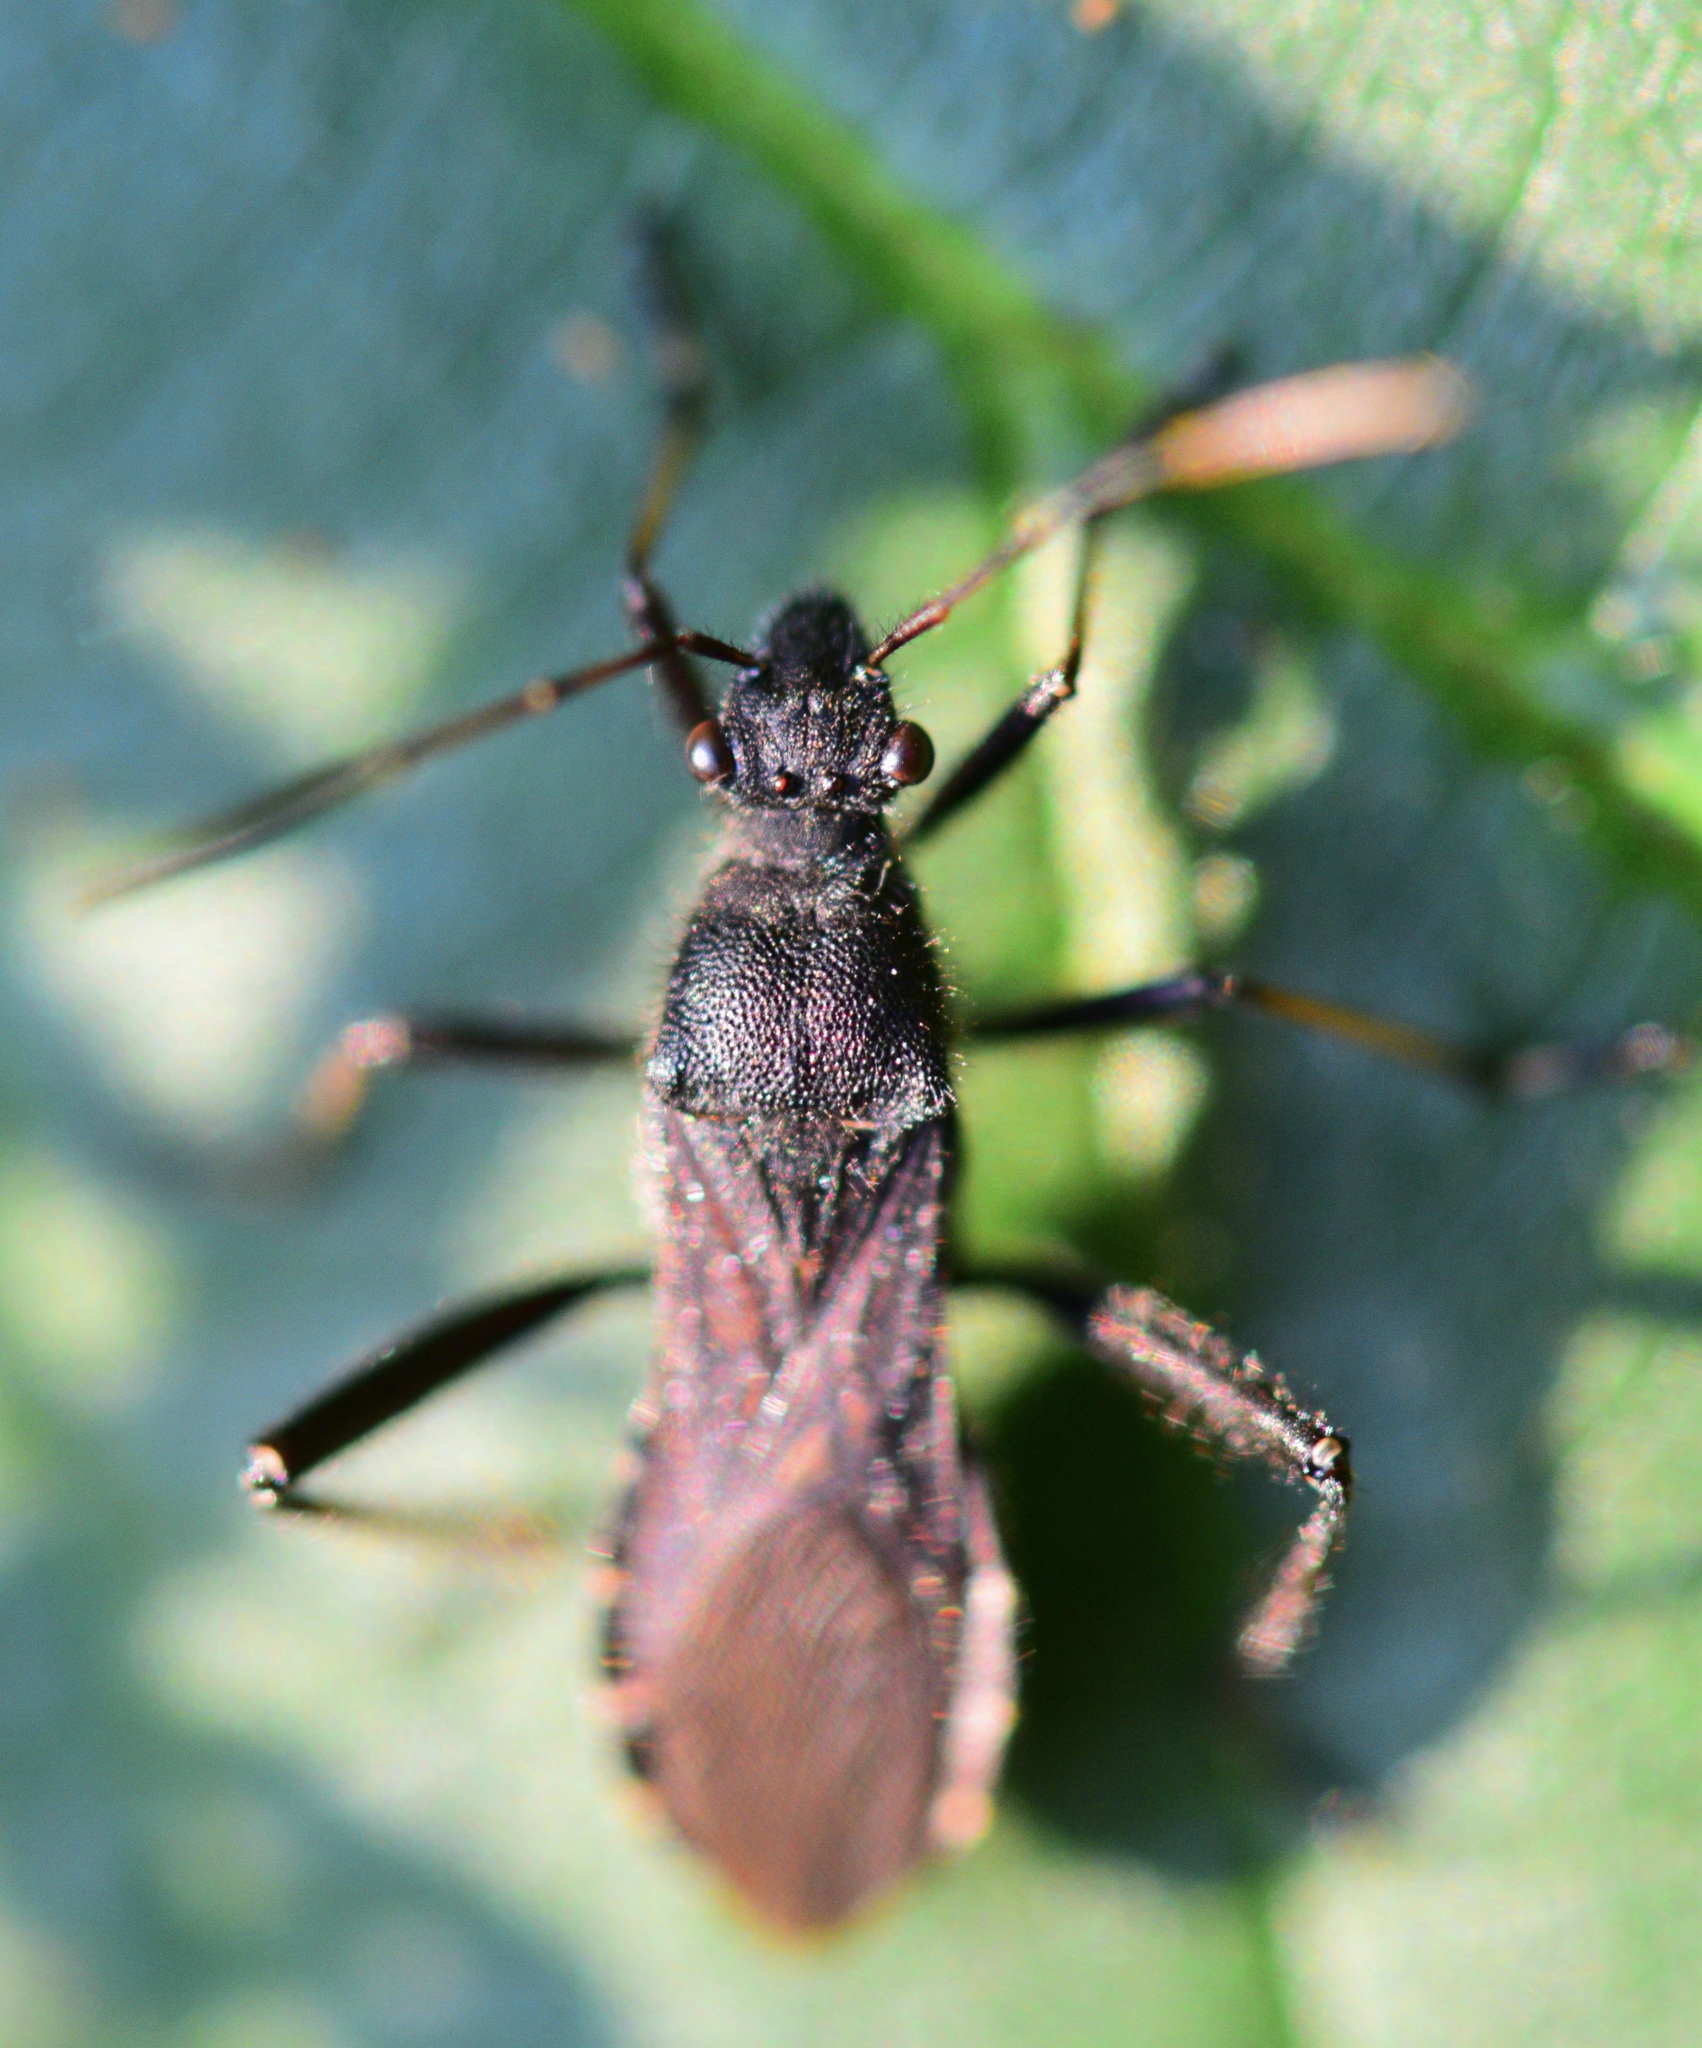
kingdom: Animalia
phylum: Arthropoda
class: Insecta
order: Hemiptera
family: Alydidae
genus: Alydus
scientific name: Alydus eurinus
